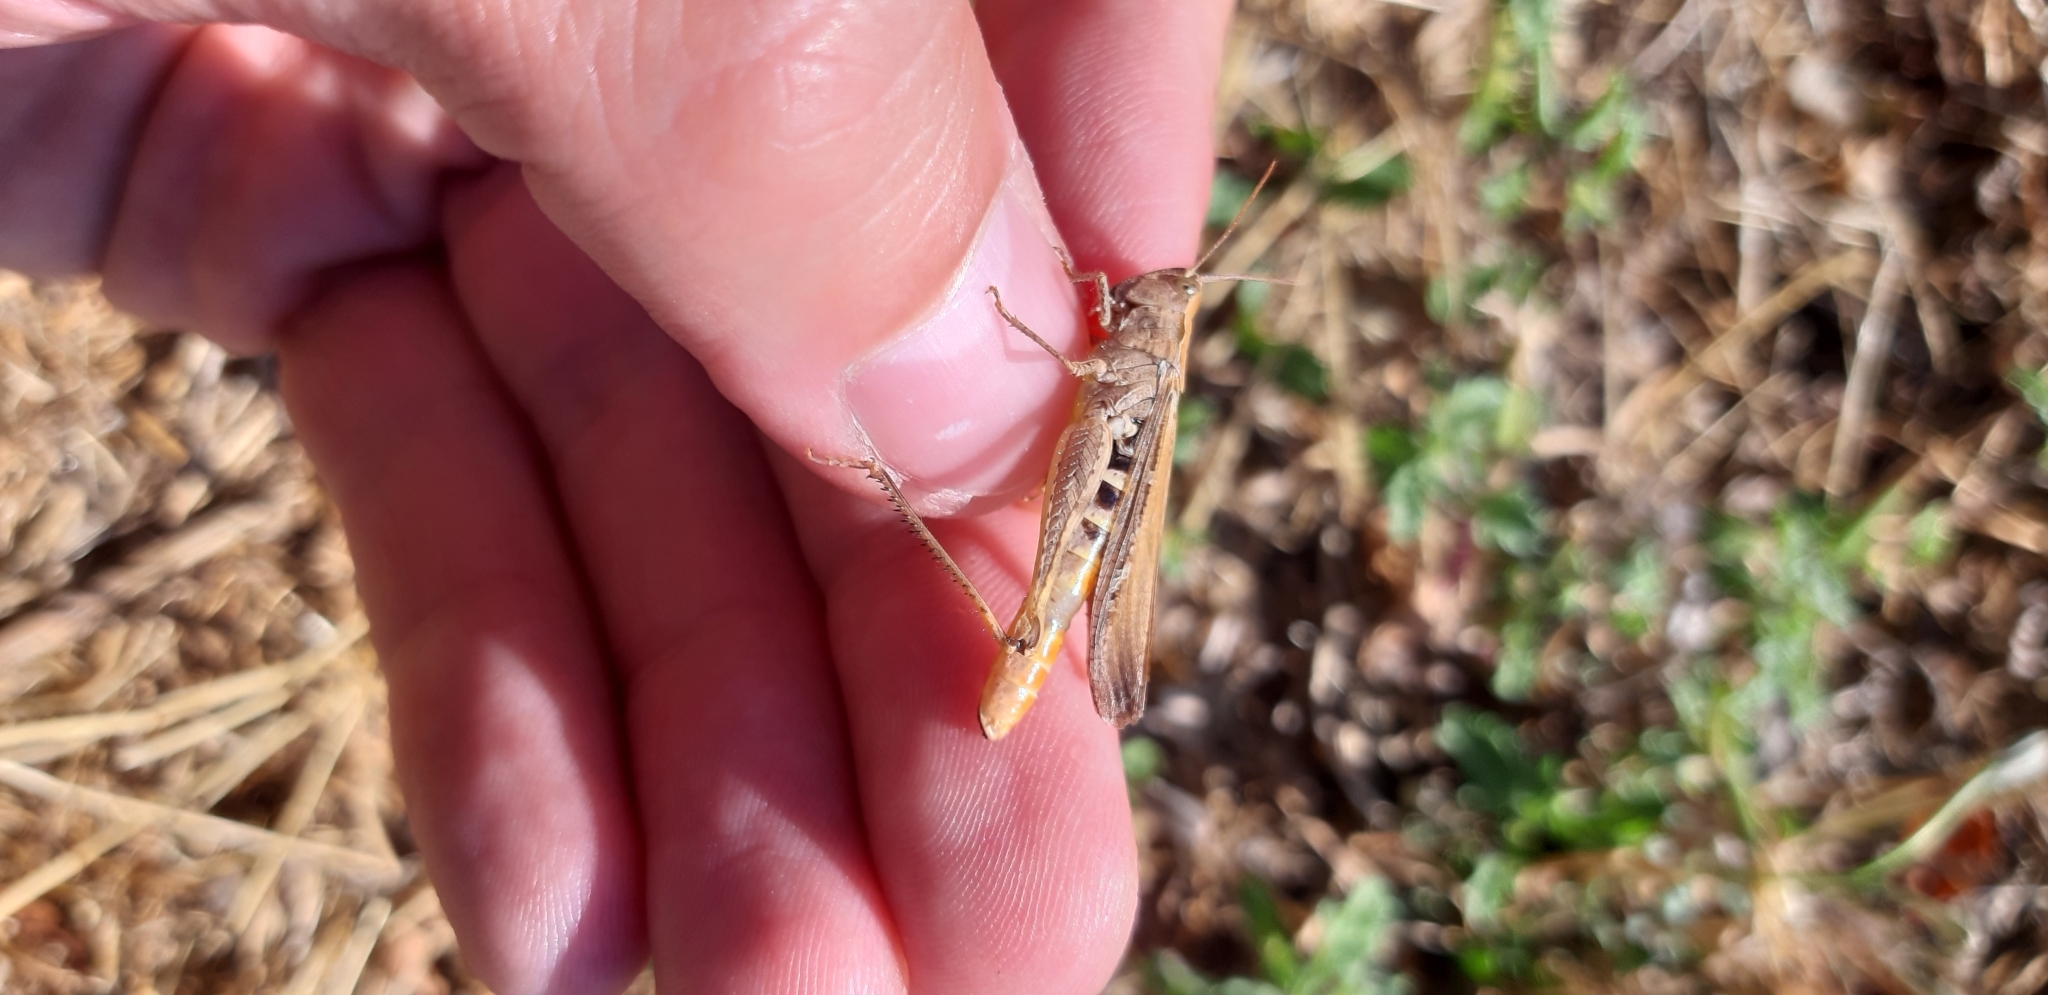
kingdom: Animalia
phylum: Arthropoda
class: Insecta
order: Orthoptera
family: Acrididae
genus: Chorthippus
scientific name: Chorthippus brunneus
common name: Field grasshopper
